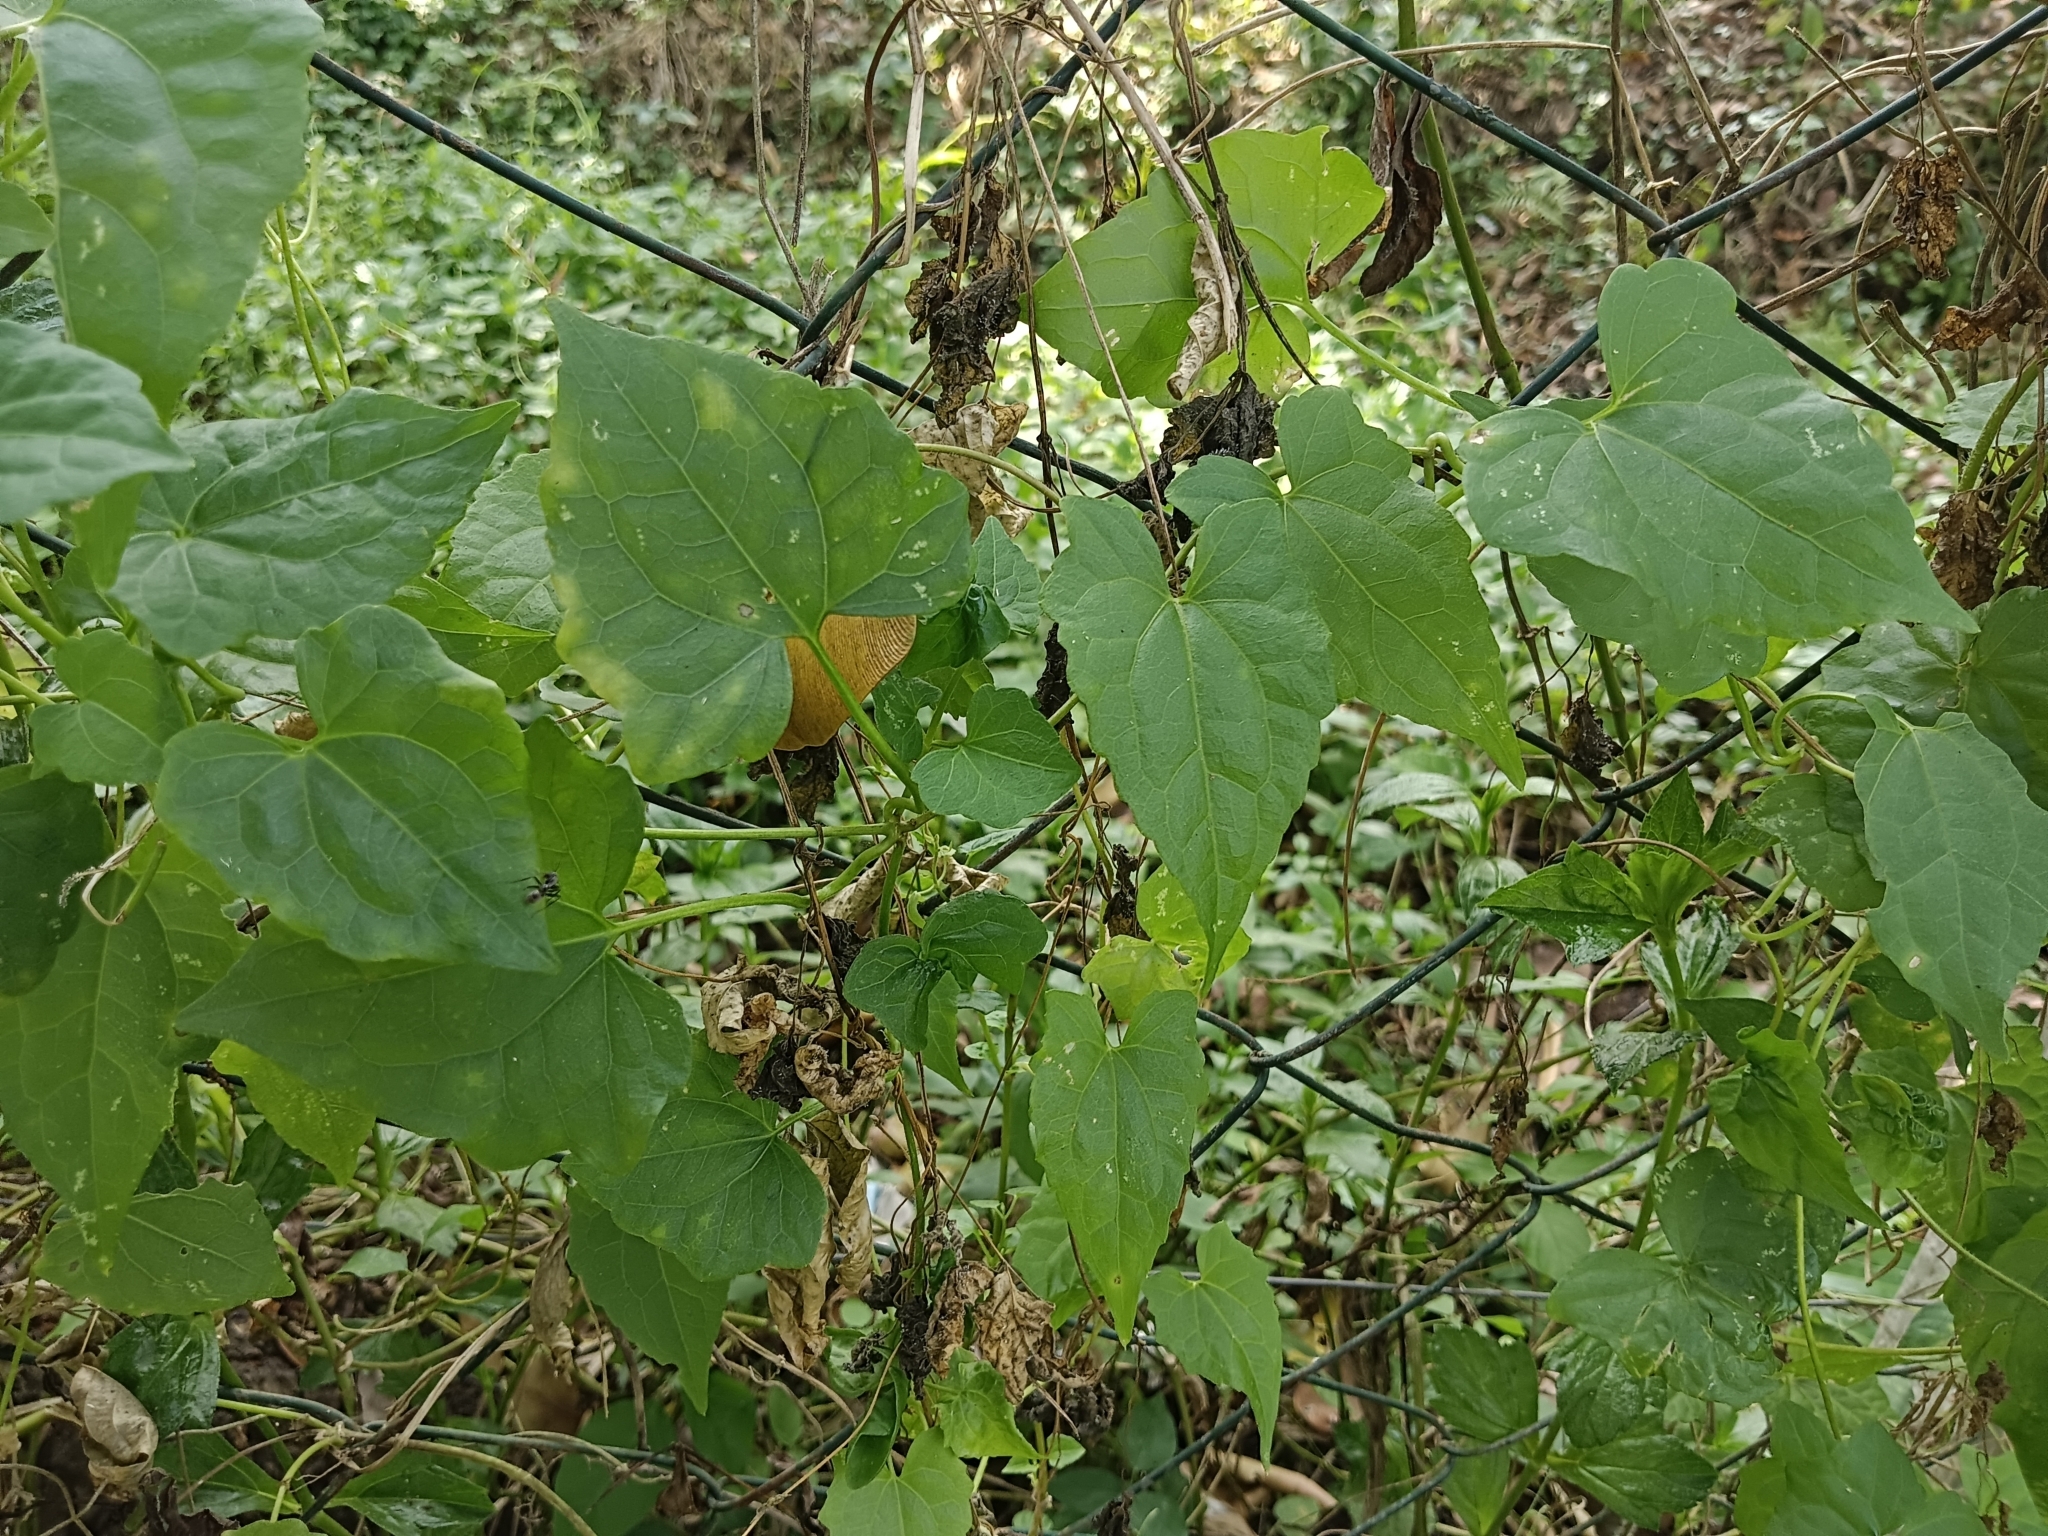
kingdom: Plantae
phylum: Tracheophyta
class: Magnoliopsida
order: Asterales
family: Asteraceae
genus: Mikania
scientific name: Mikania micrantha
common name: Mile-a-minute
